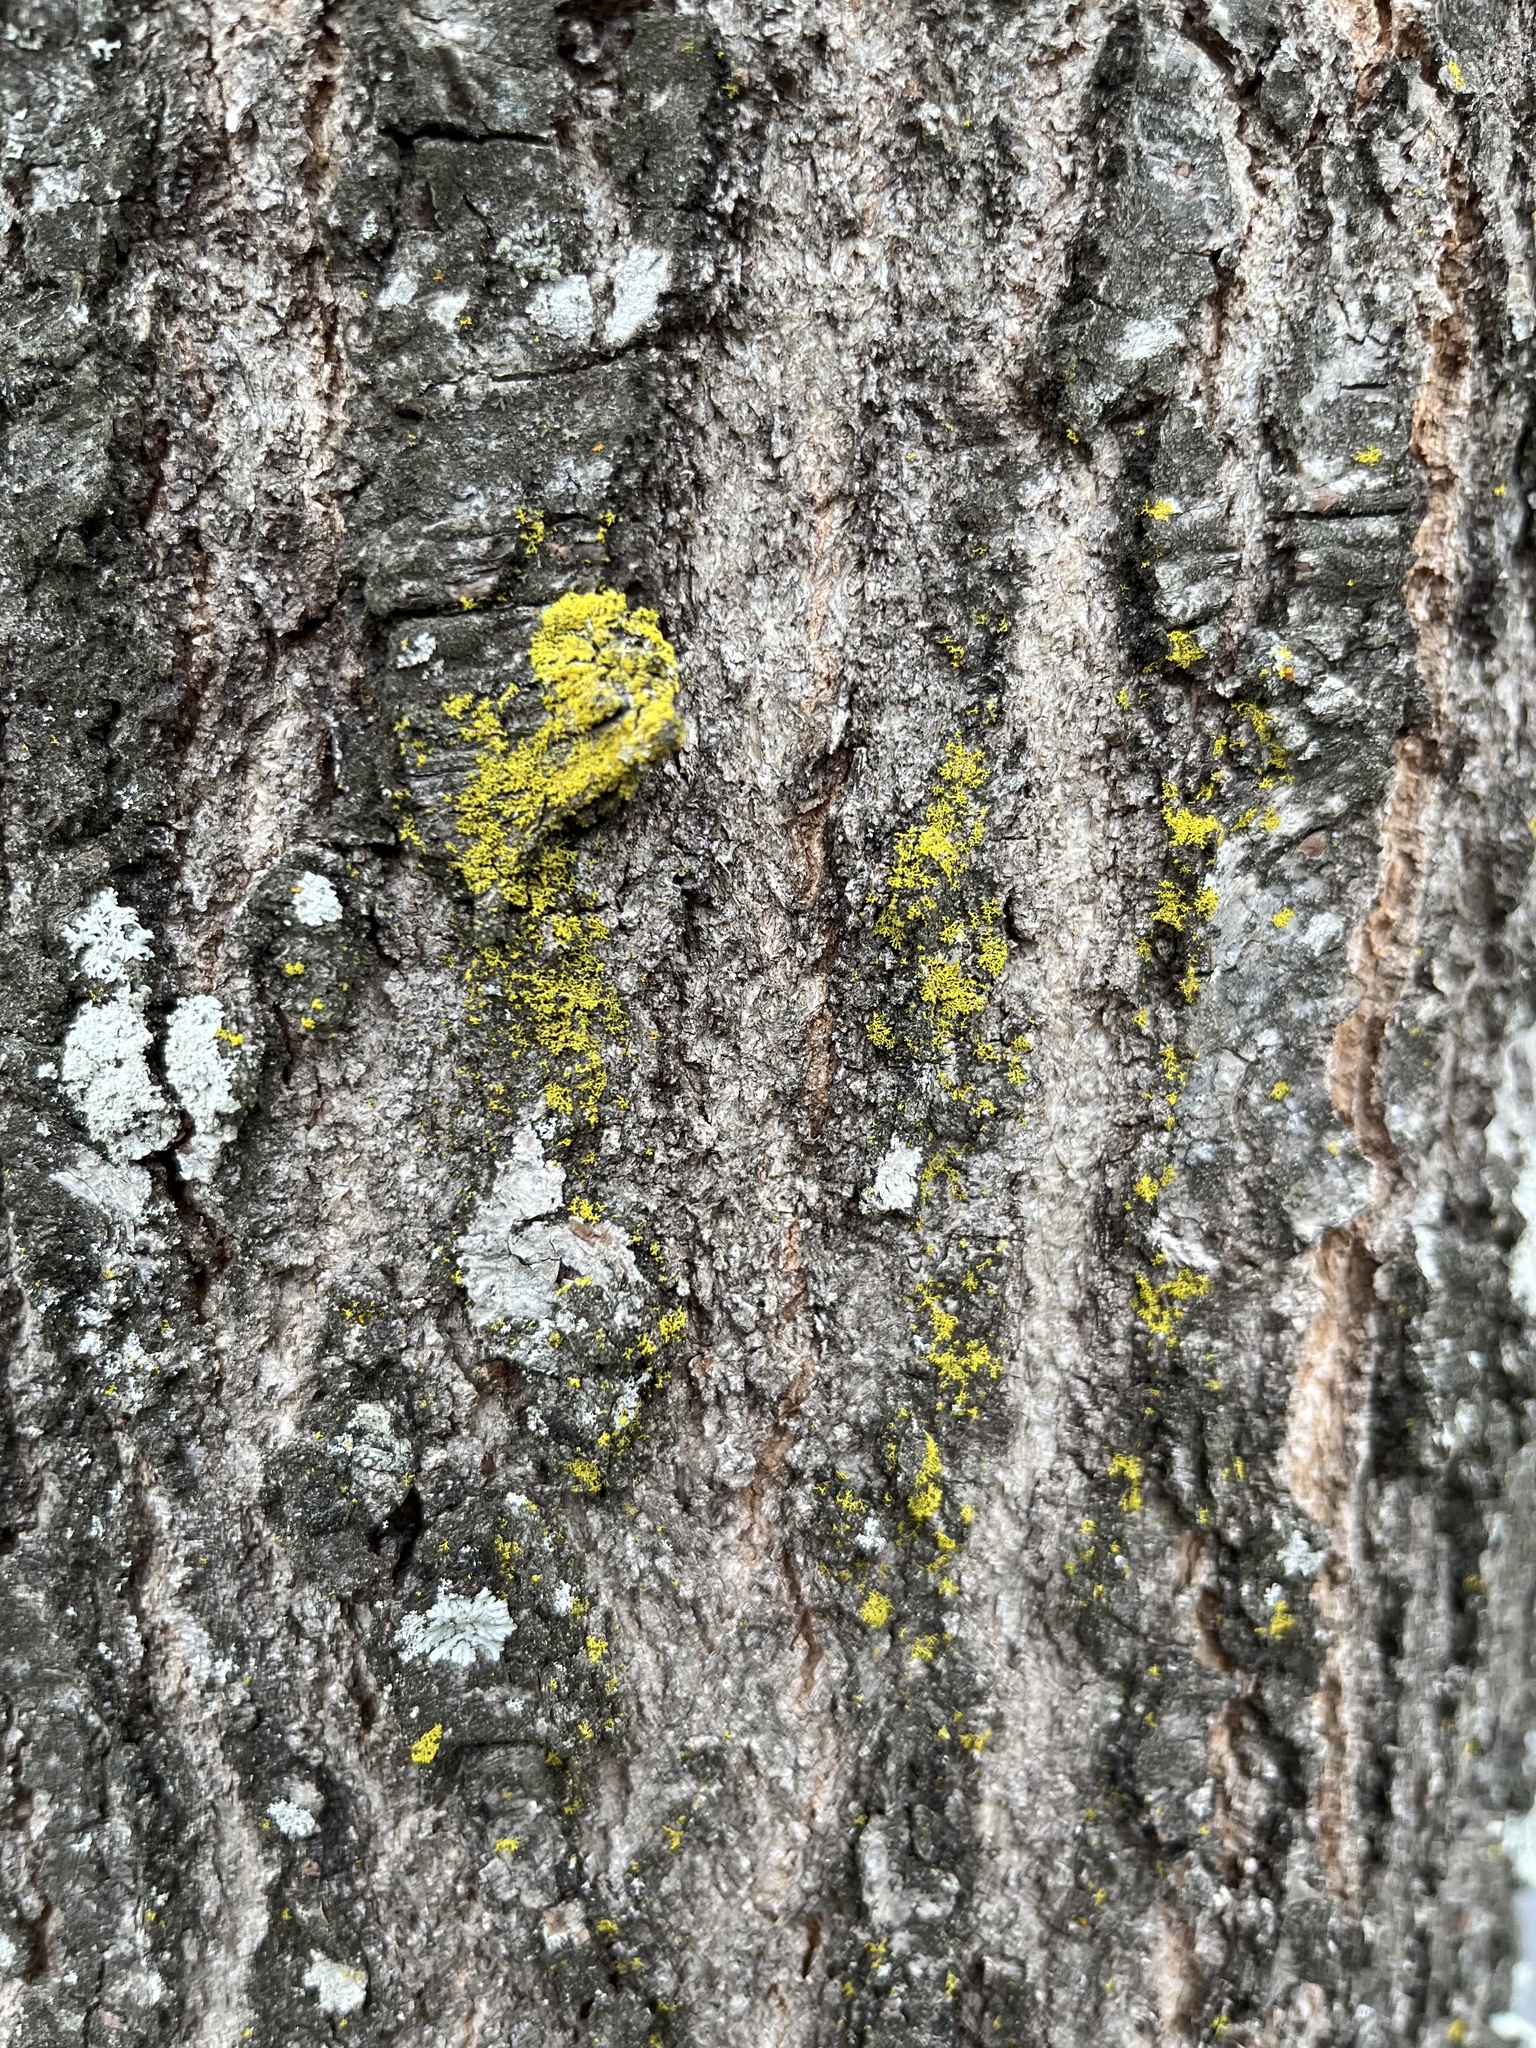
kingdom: Fungi
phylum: Ascomycota
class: Candelariomycetes
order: Candelariales
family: Candelariaceae
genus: Candelaria
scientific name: Candelaria concolor
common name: Candleflame lichen
